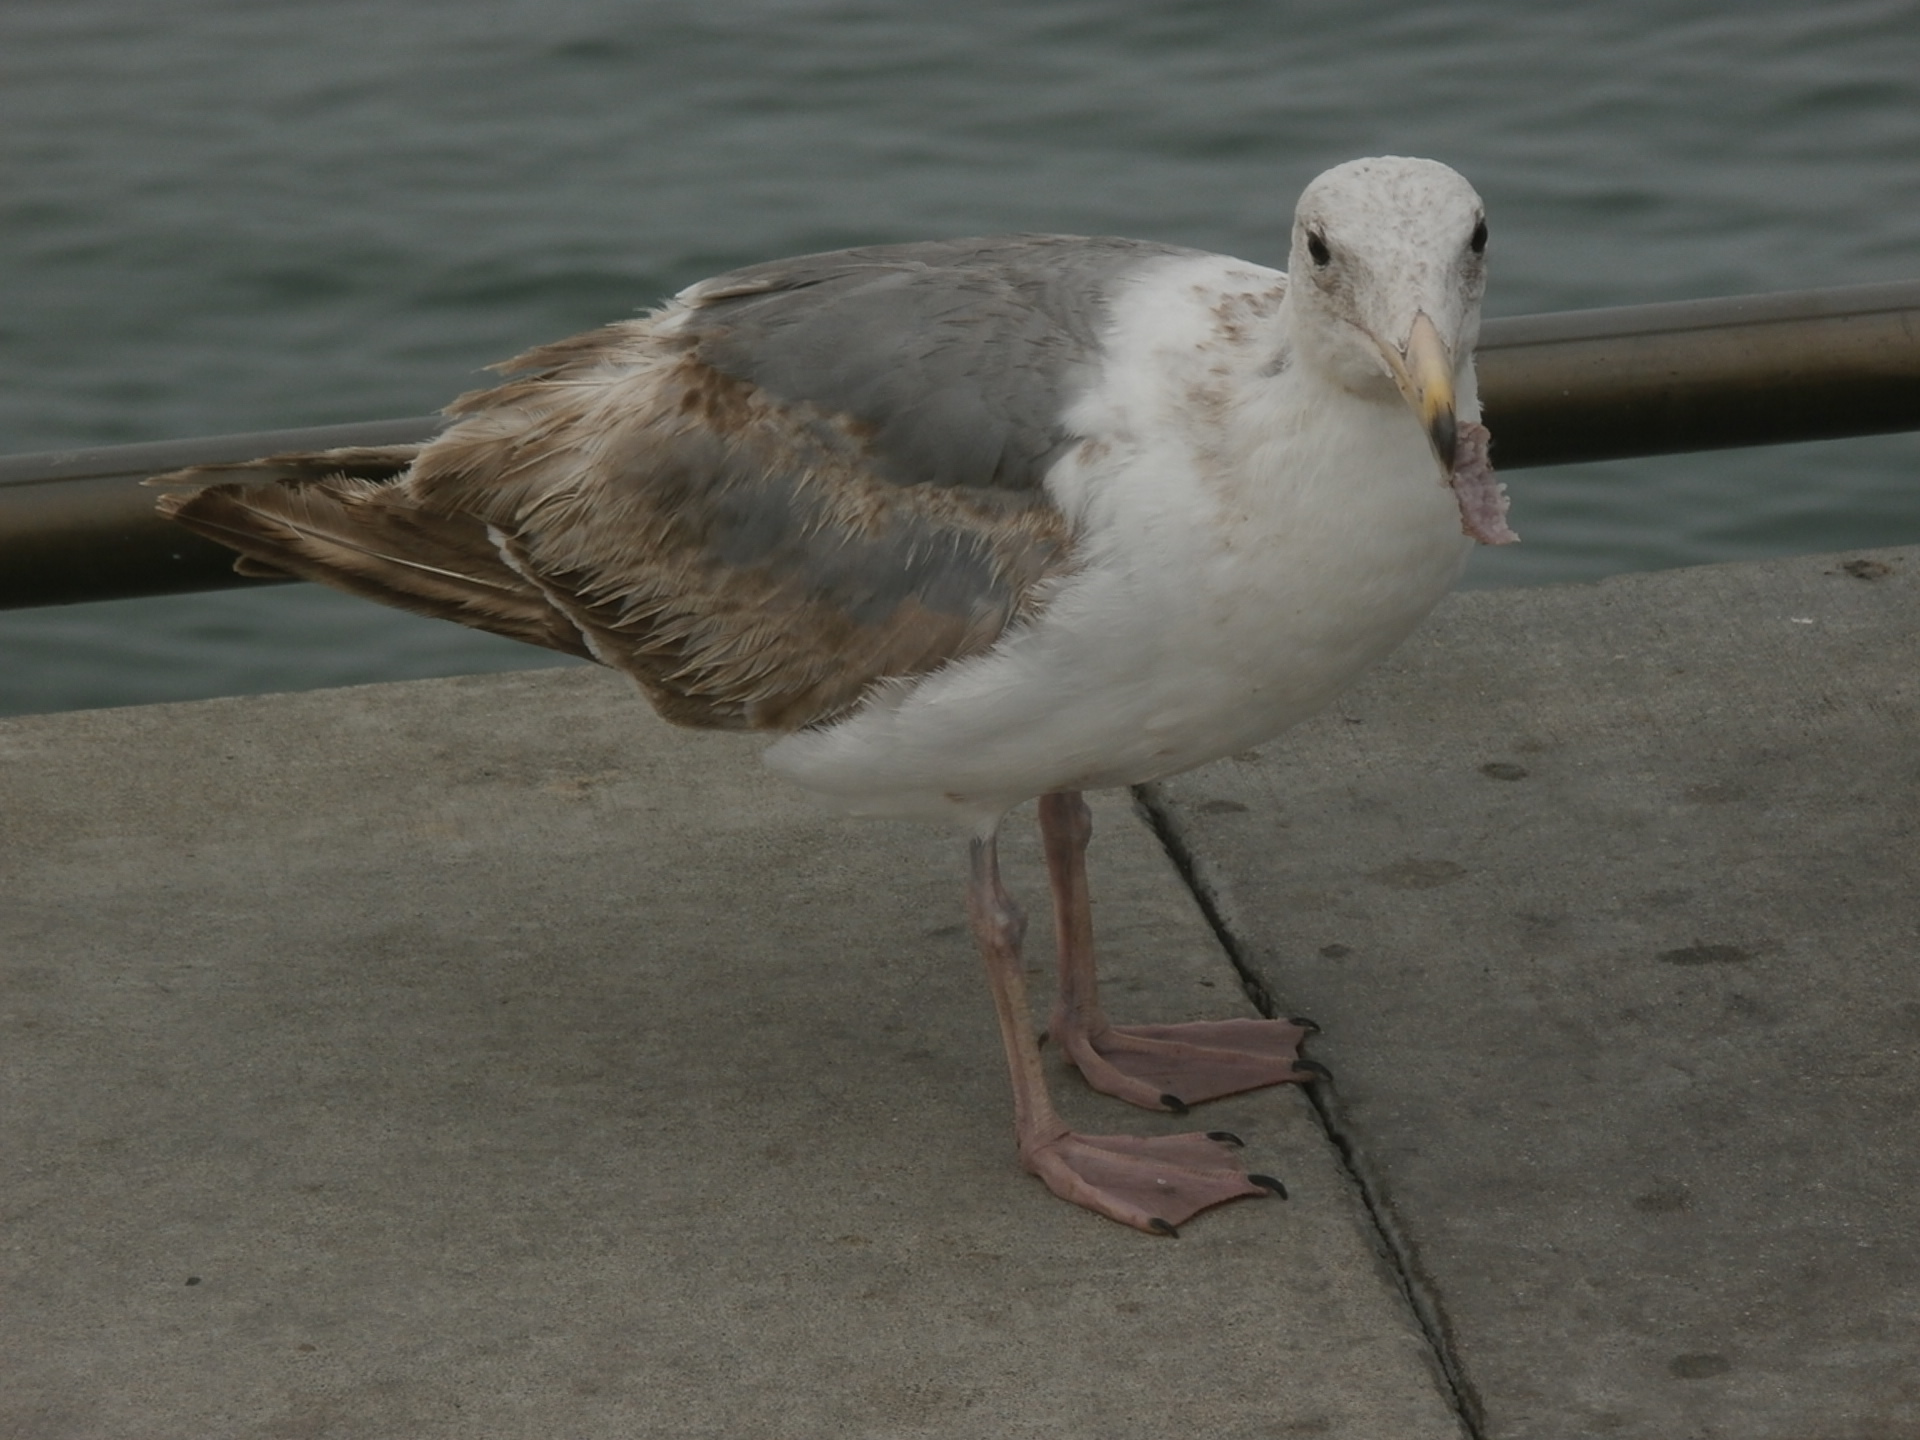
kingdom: Animalia
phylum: Chordata
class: Aves
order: Charadriiformes
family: Laridae
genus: Larus
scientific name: Larus occidentalis
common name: Western gull
